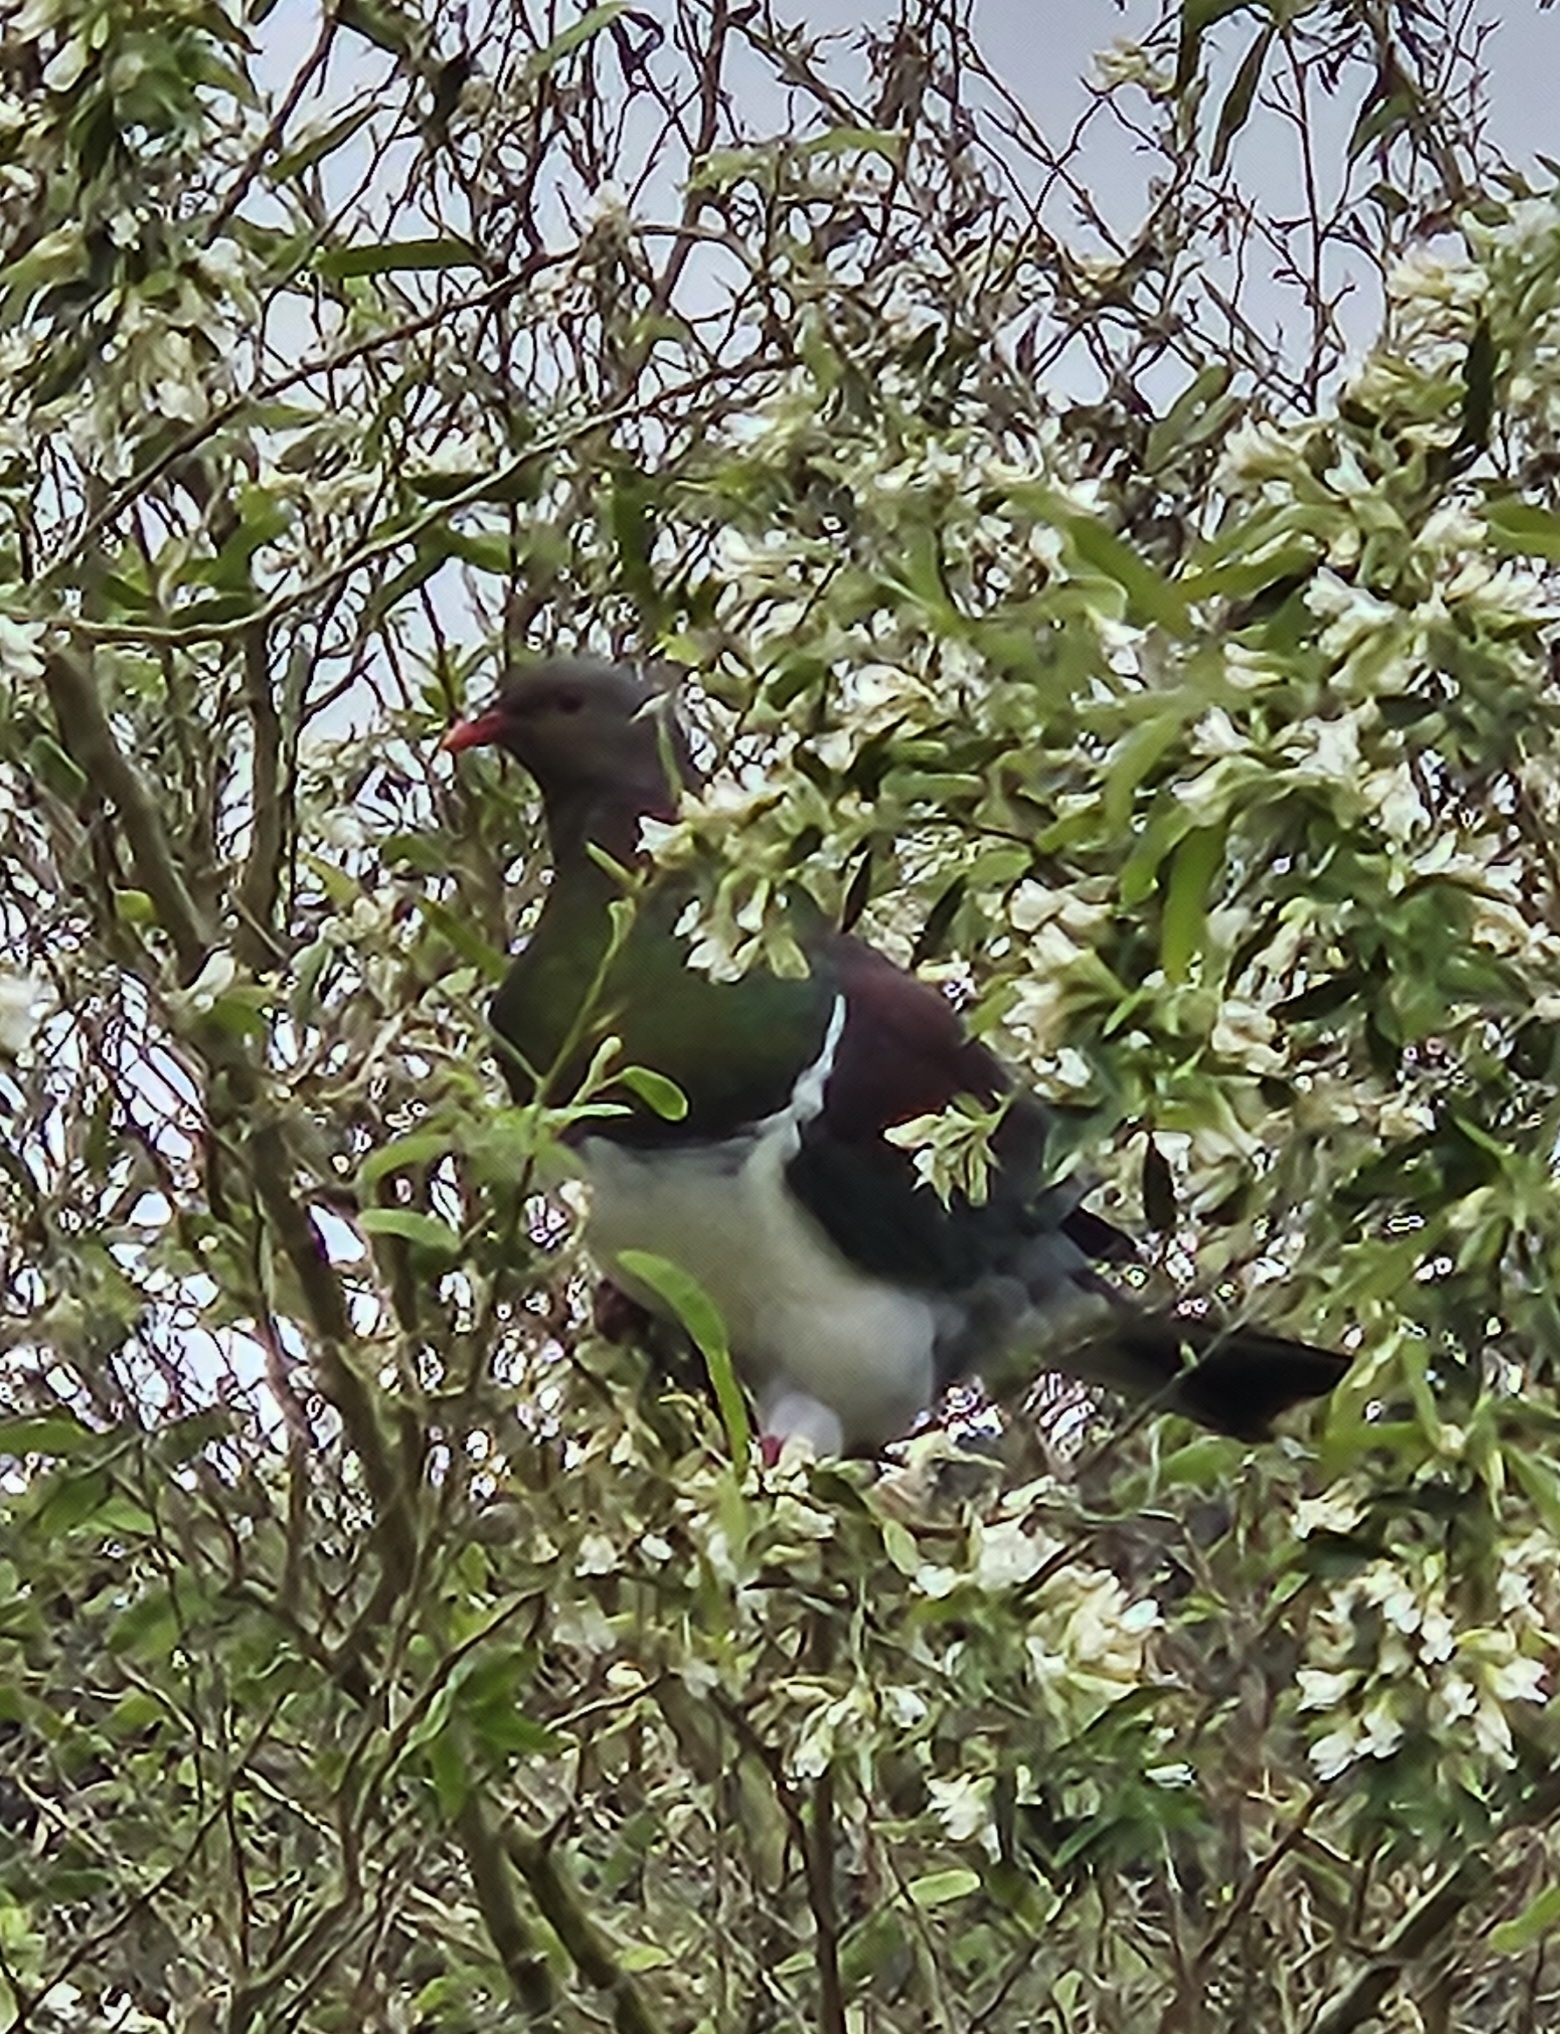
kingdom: Animalia
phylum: Chordata
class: Aves
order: Columbiformes
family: Columbidae
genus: Hemiphaga
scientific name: Hemiphaga novaeseelandiae
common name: New zealand pigeon
